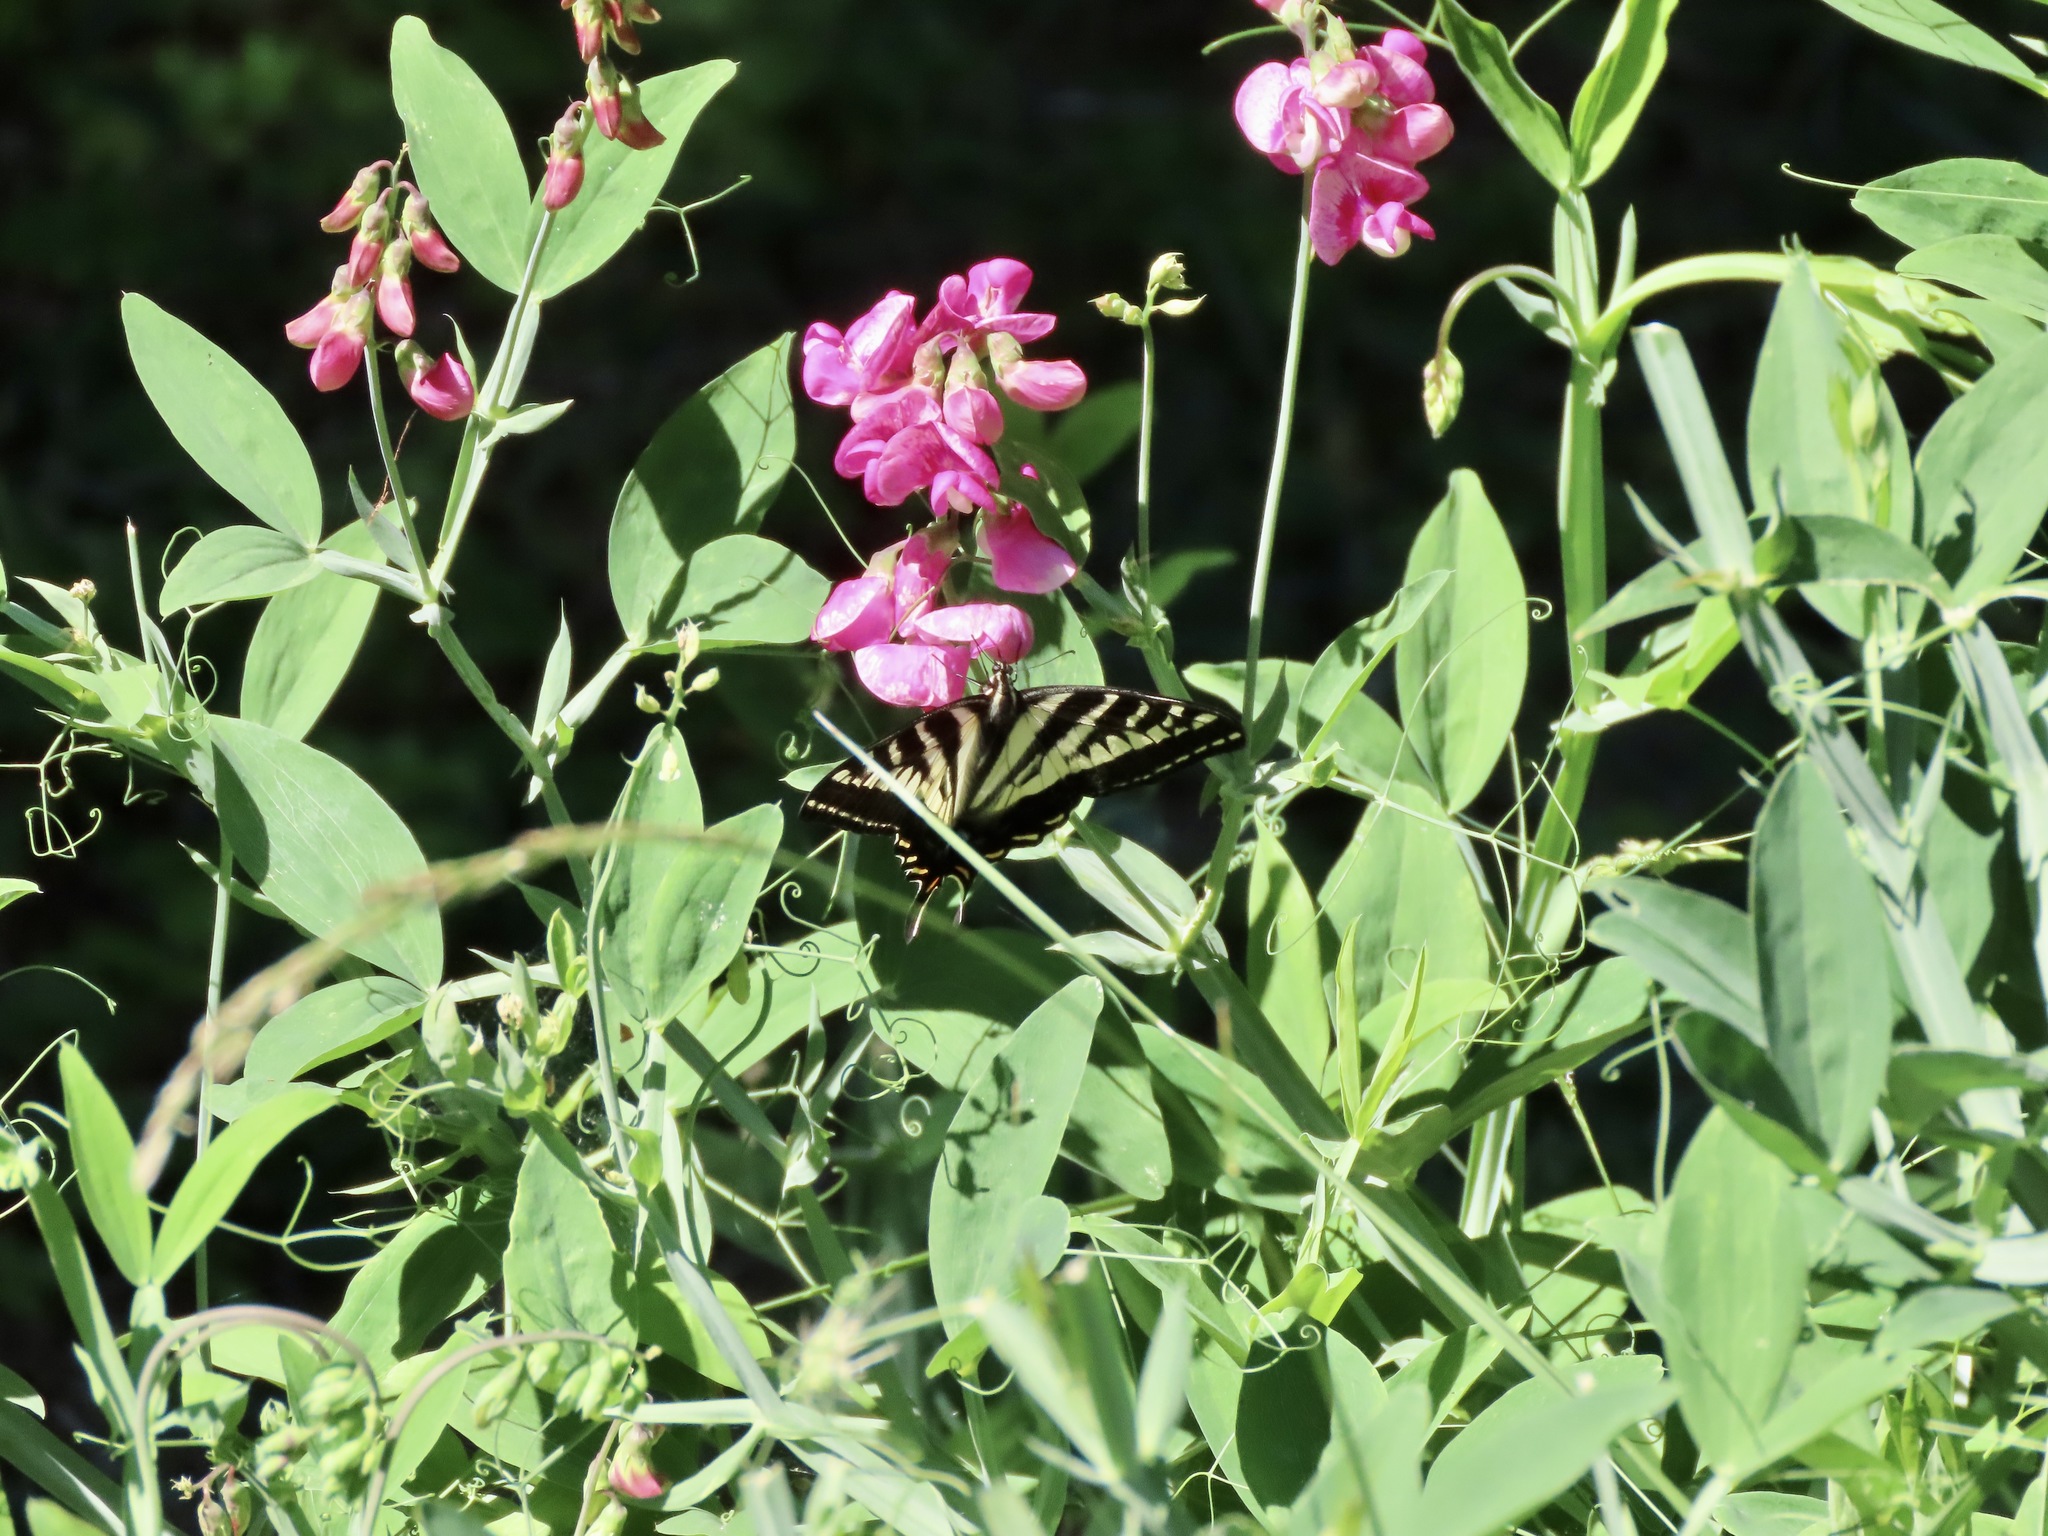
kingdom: Animalia
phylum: Arthropoda
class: Insecta
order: Lepidoptera
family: Papilionidae
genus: Papilio
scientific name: Papilio eurymedon
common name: Pale tiger swallowtail
